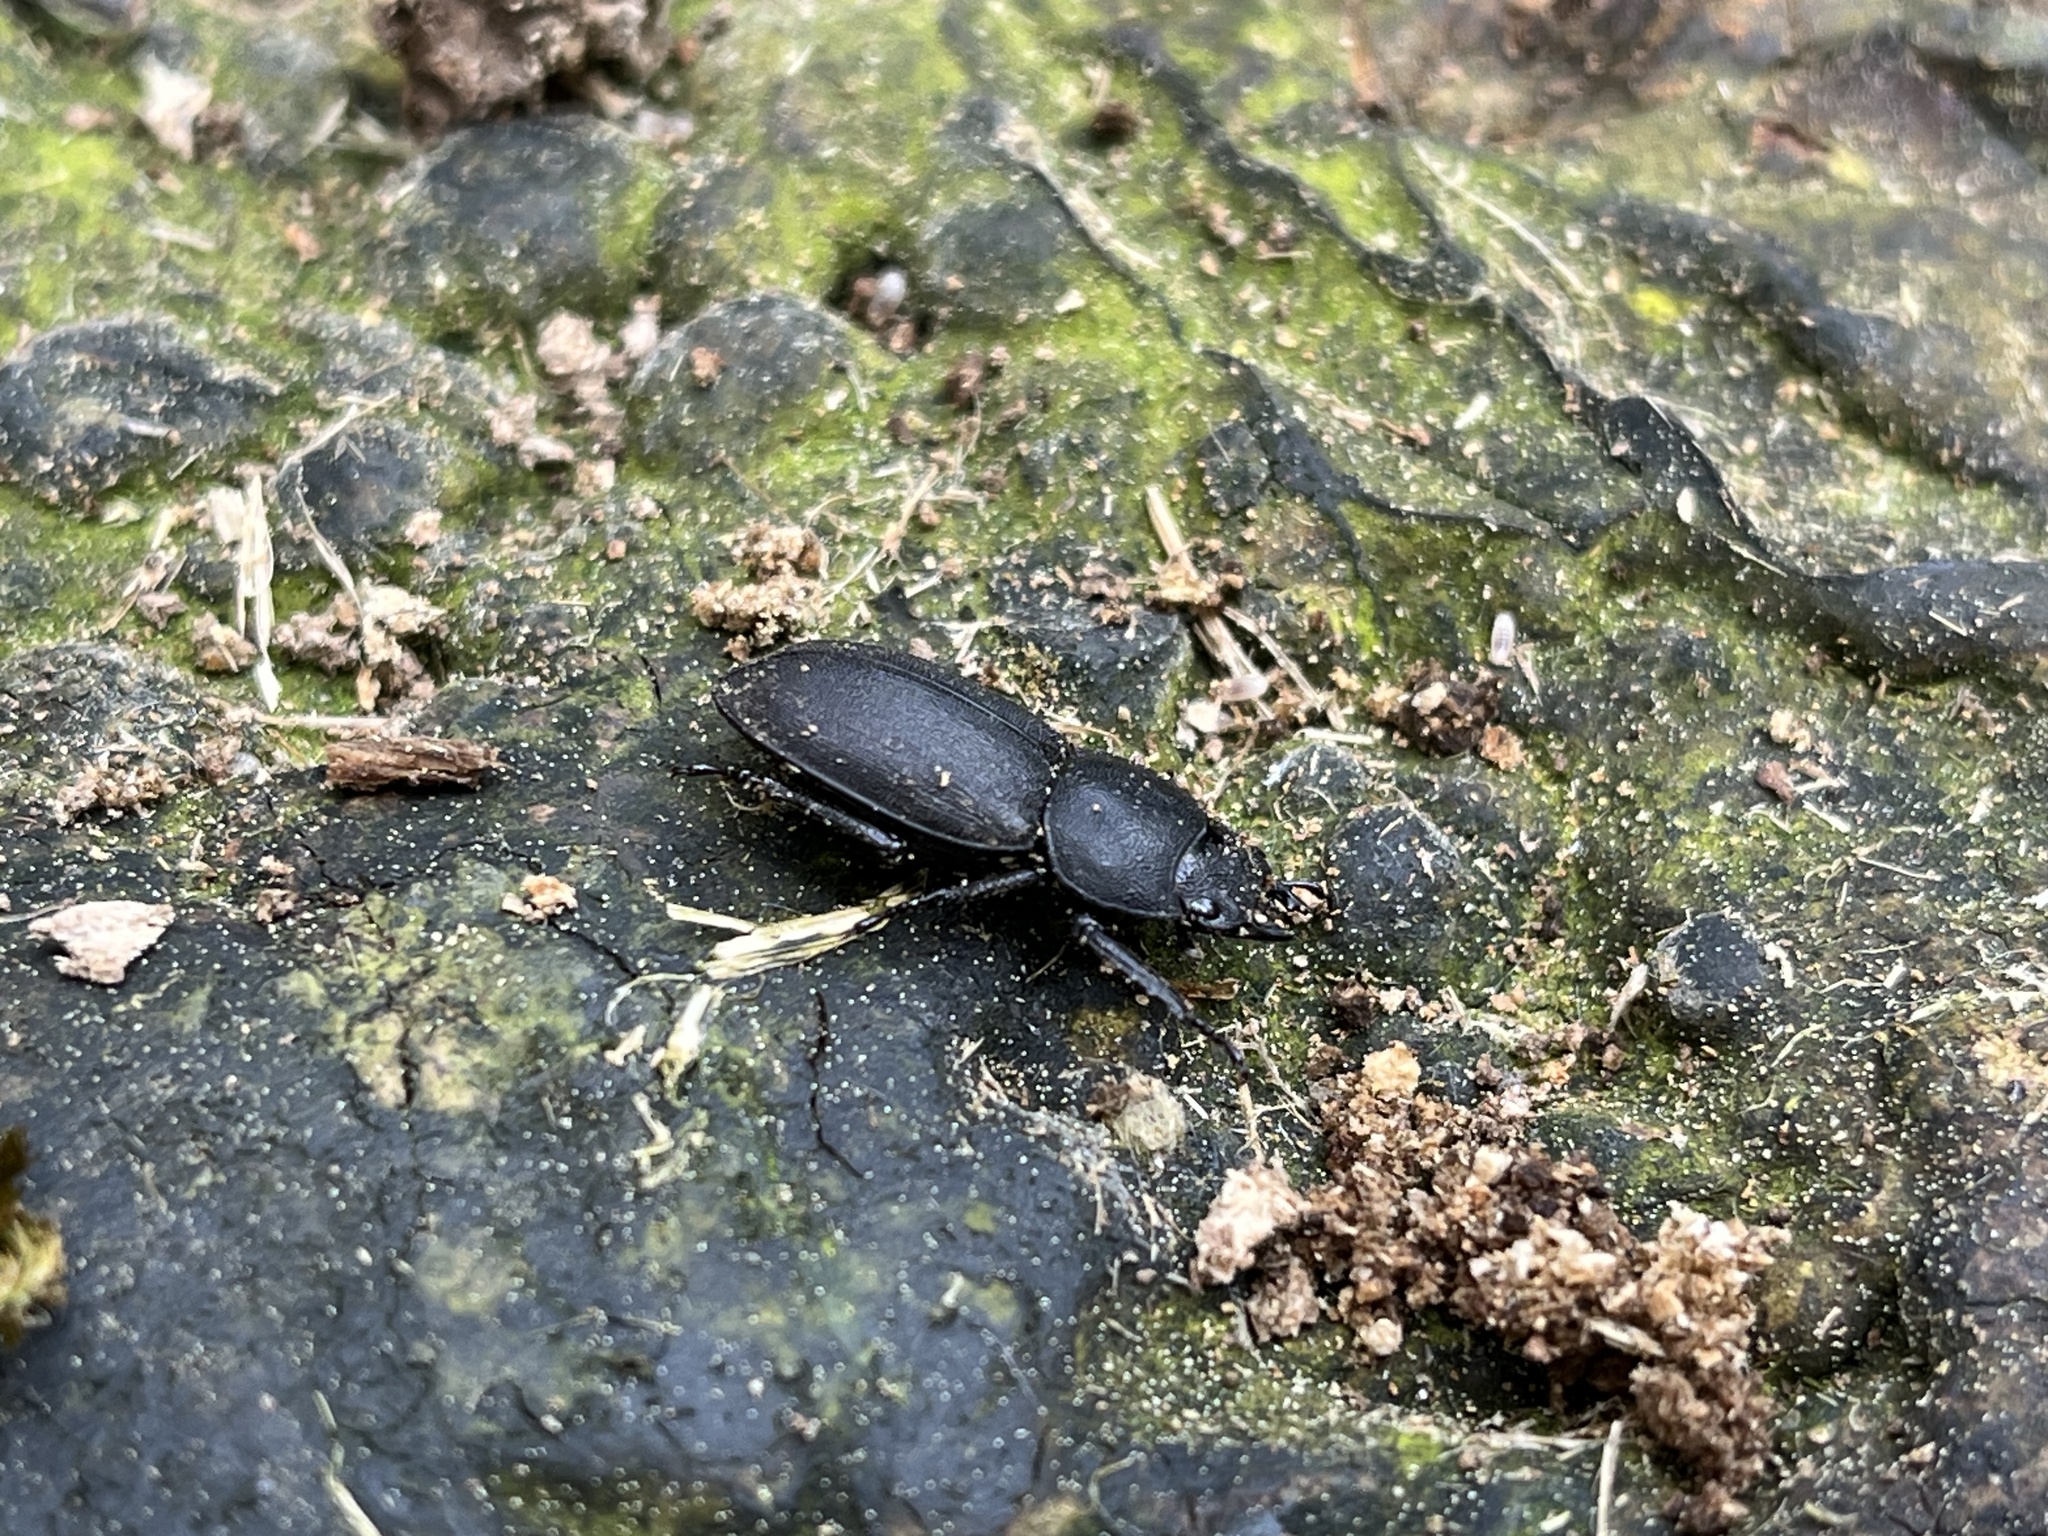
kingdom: Animalia
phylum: Arthropoda
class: Insecta
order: Coleoptera
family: Lucanidae
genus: Dorcus
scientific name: Dorcus parallelipipedus
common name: Lesser stag beetle
